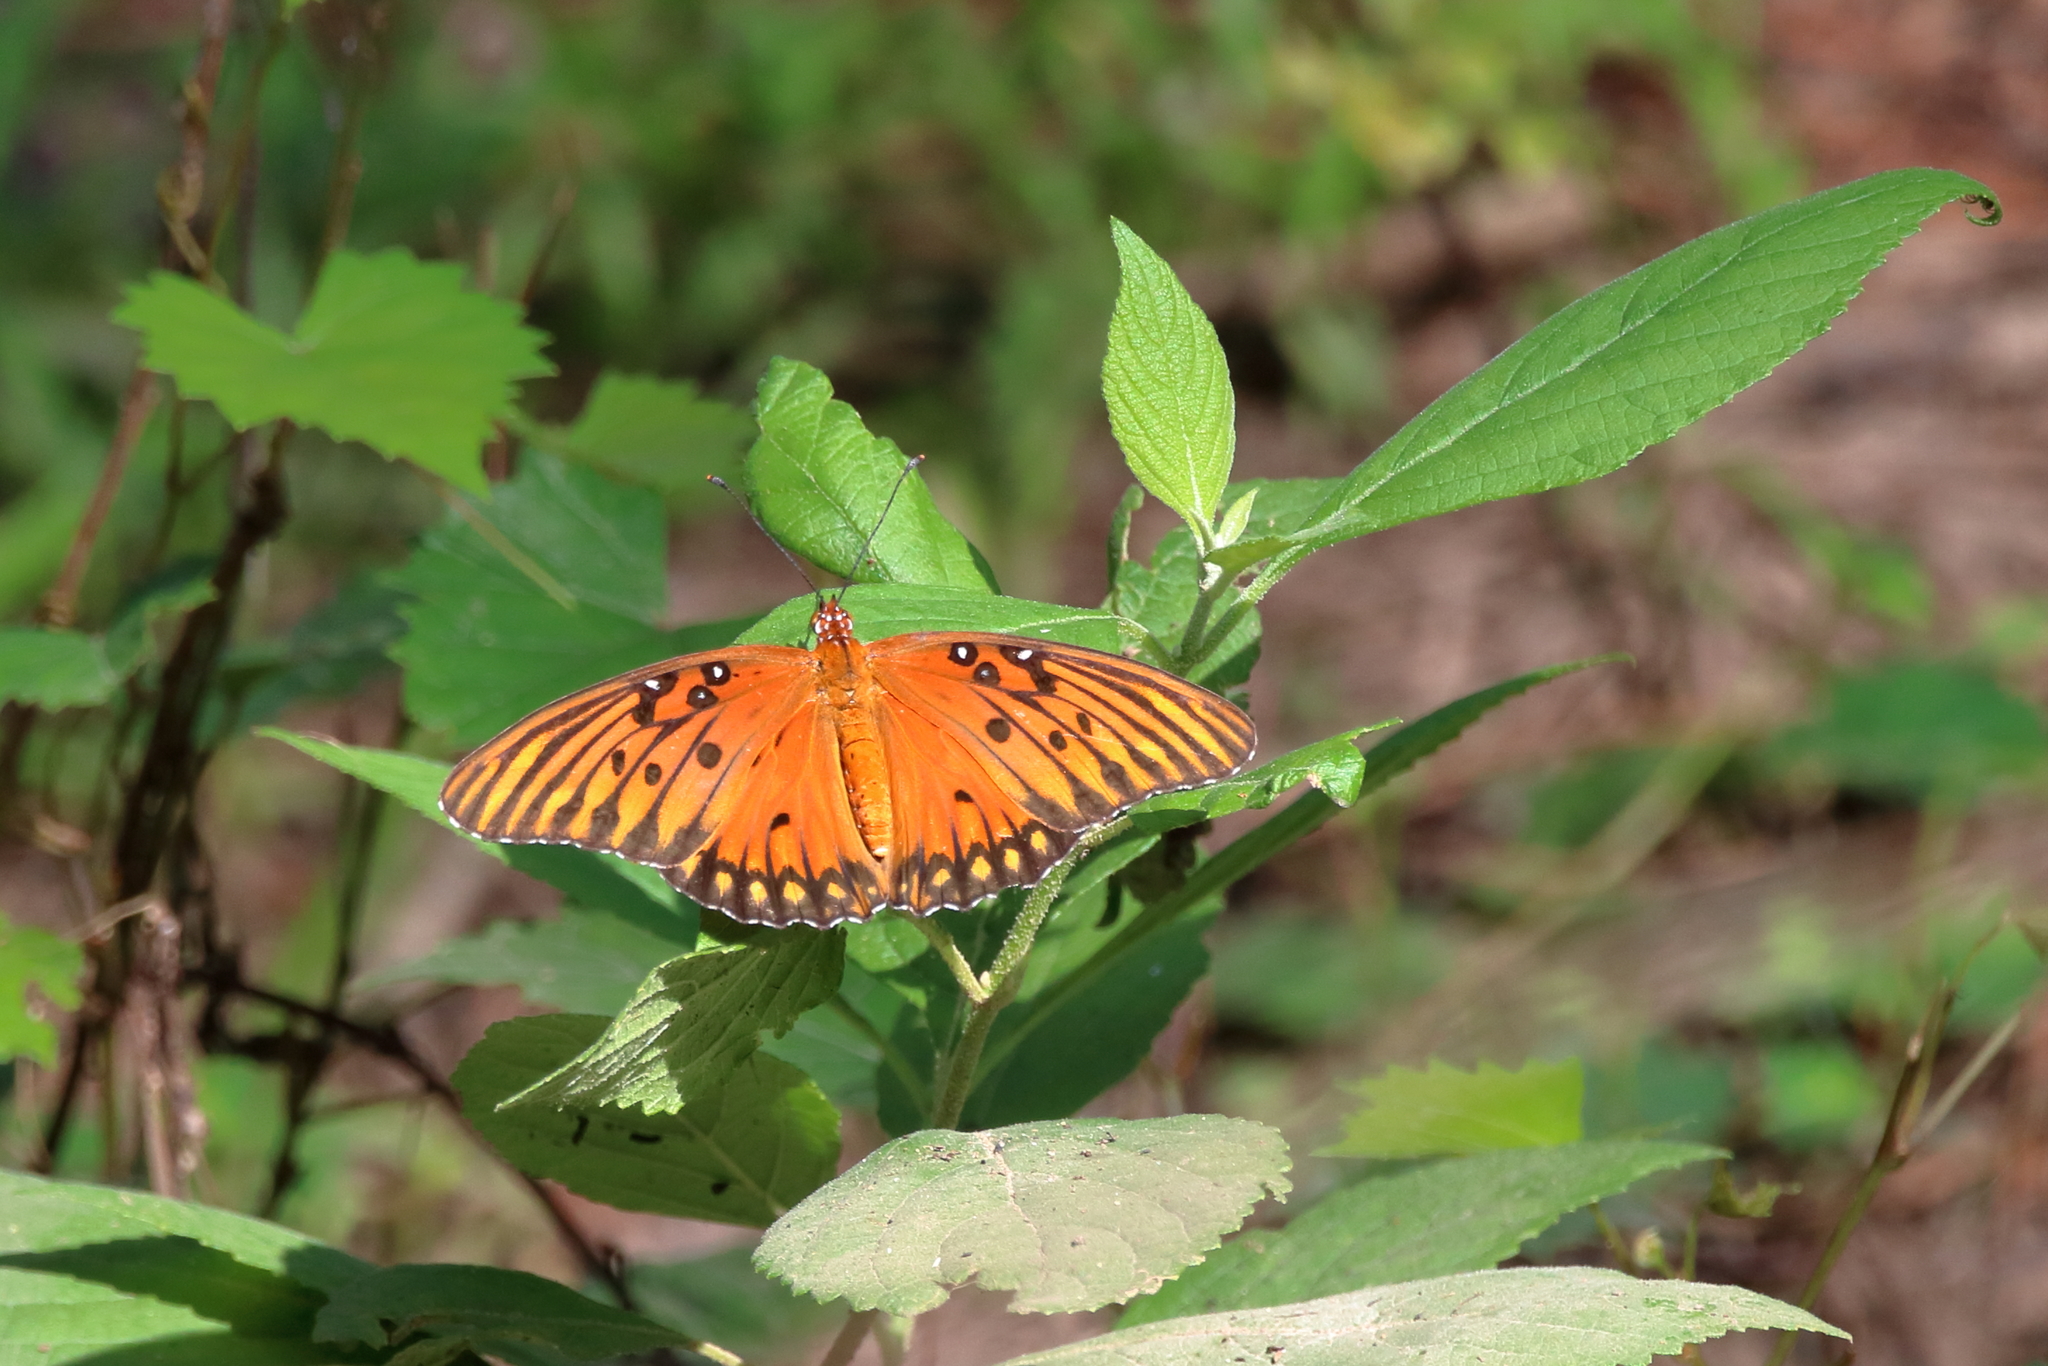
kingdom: Animalia
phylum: Arthropoda
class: Insecta
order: Lepidoptera
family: Nymphalidae
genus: Dione
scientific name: Dione vanillae
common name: Gulf fritillary
